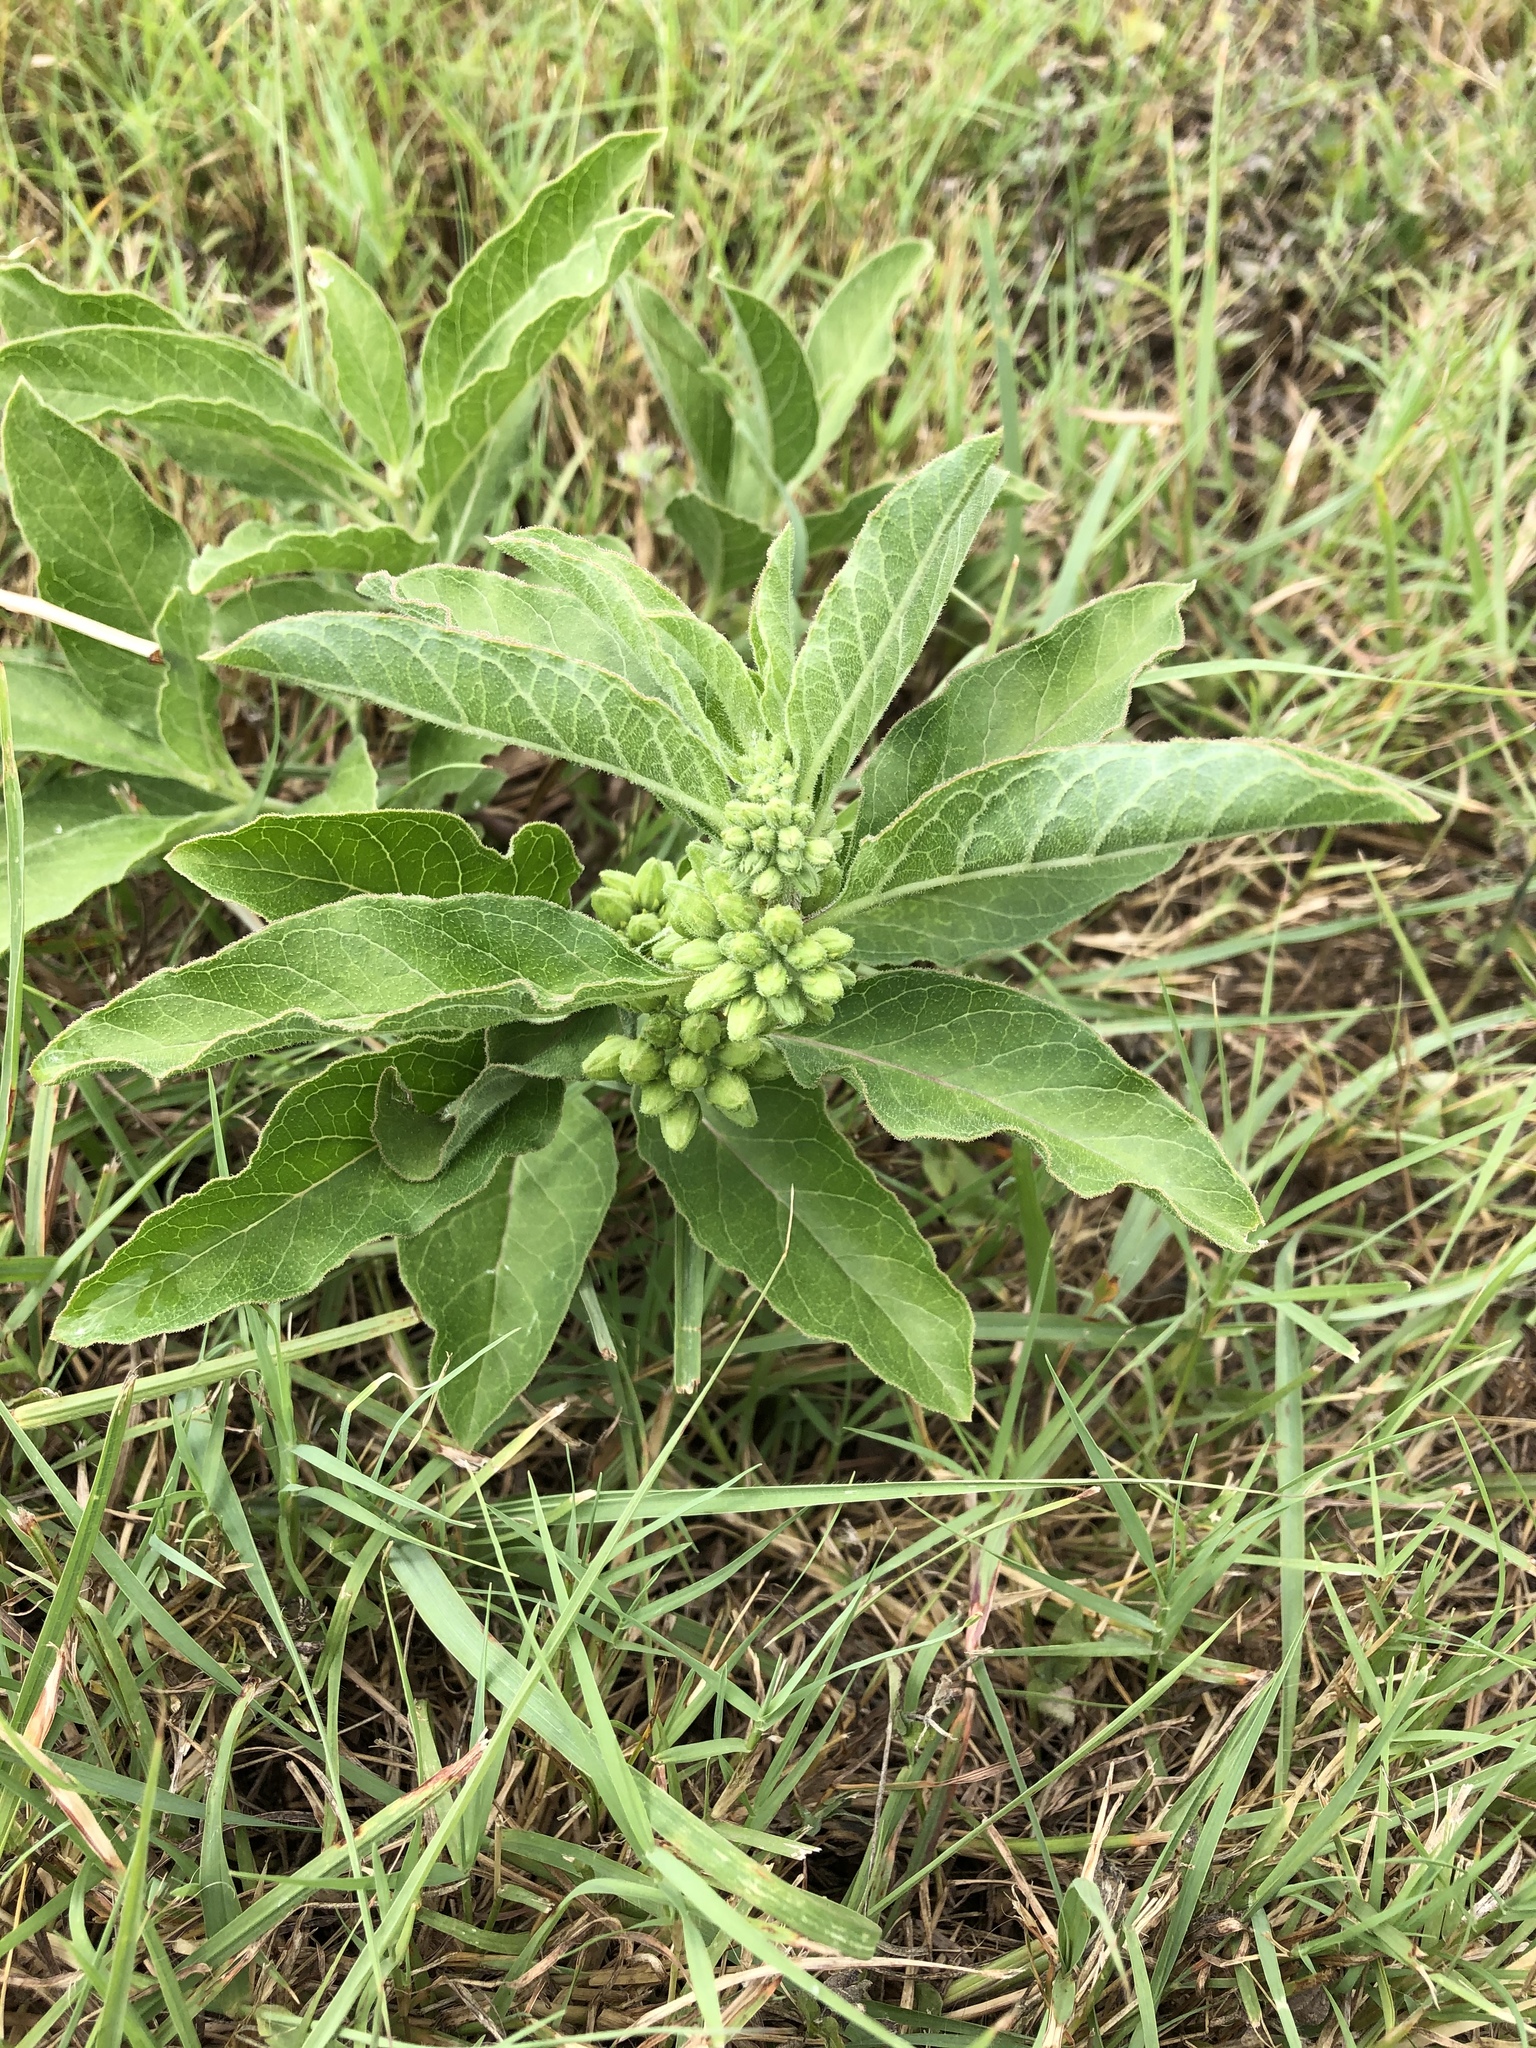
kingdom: Plantae
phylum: Tracheophyta
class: Magnoliopsida
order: Gentianales
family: Apocynaceae
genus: Asclepias
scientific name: Asclepias oenotheroides
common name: Zizotes milkweed
